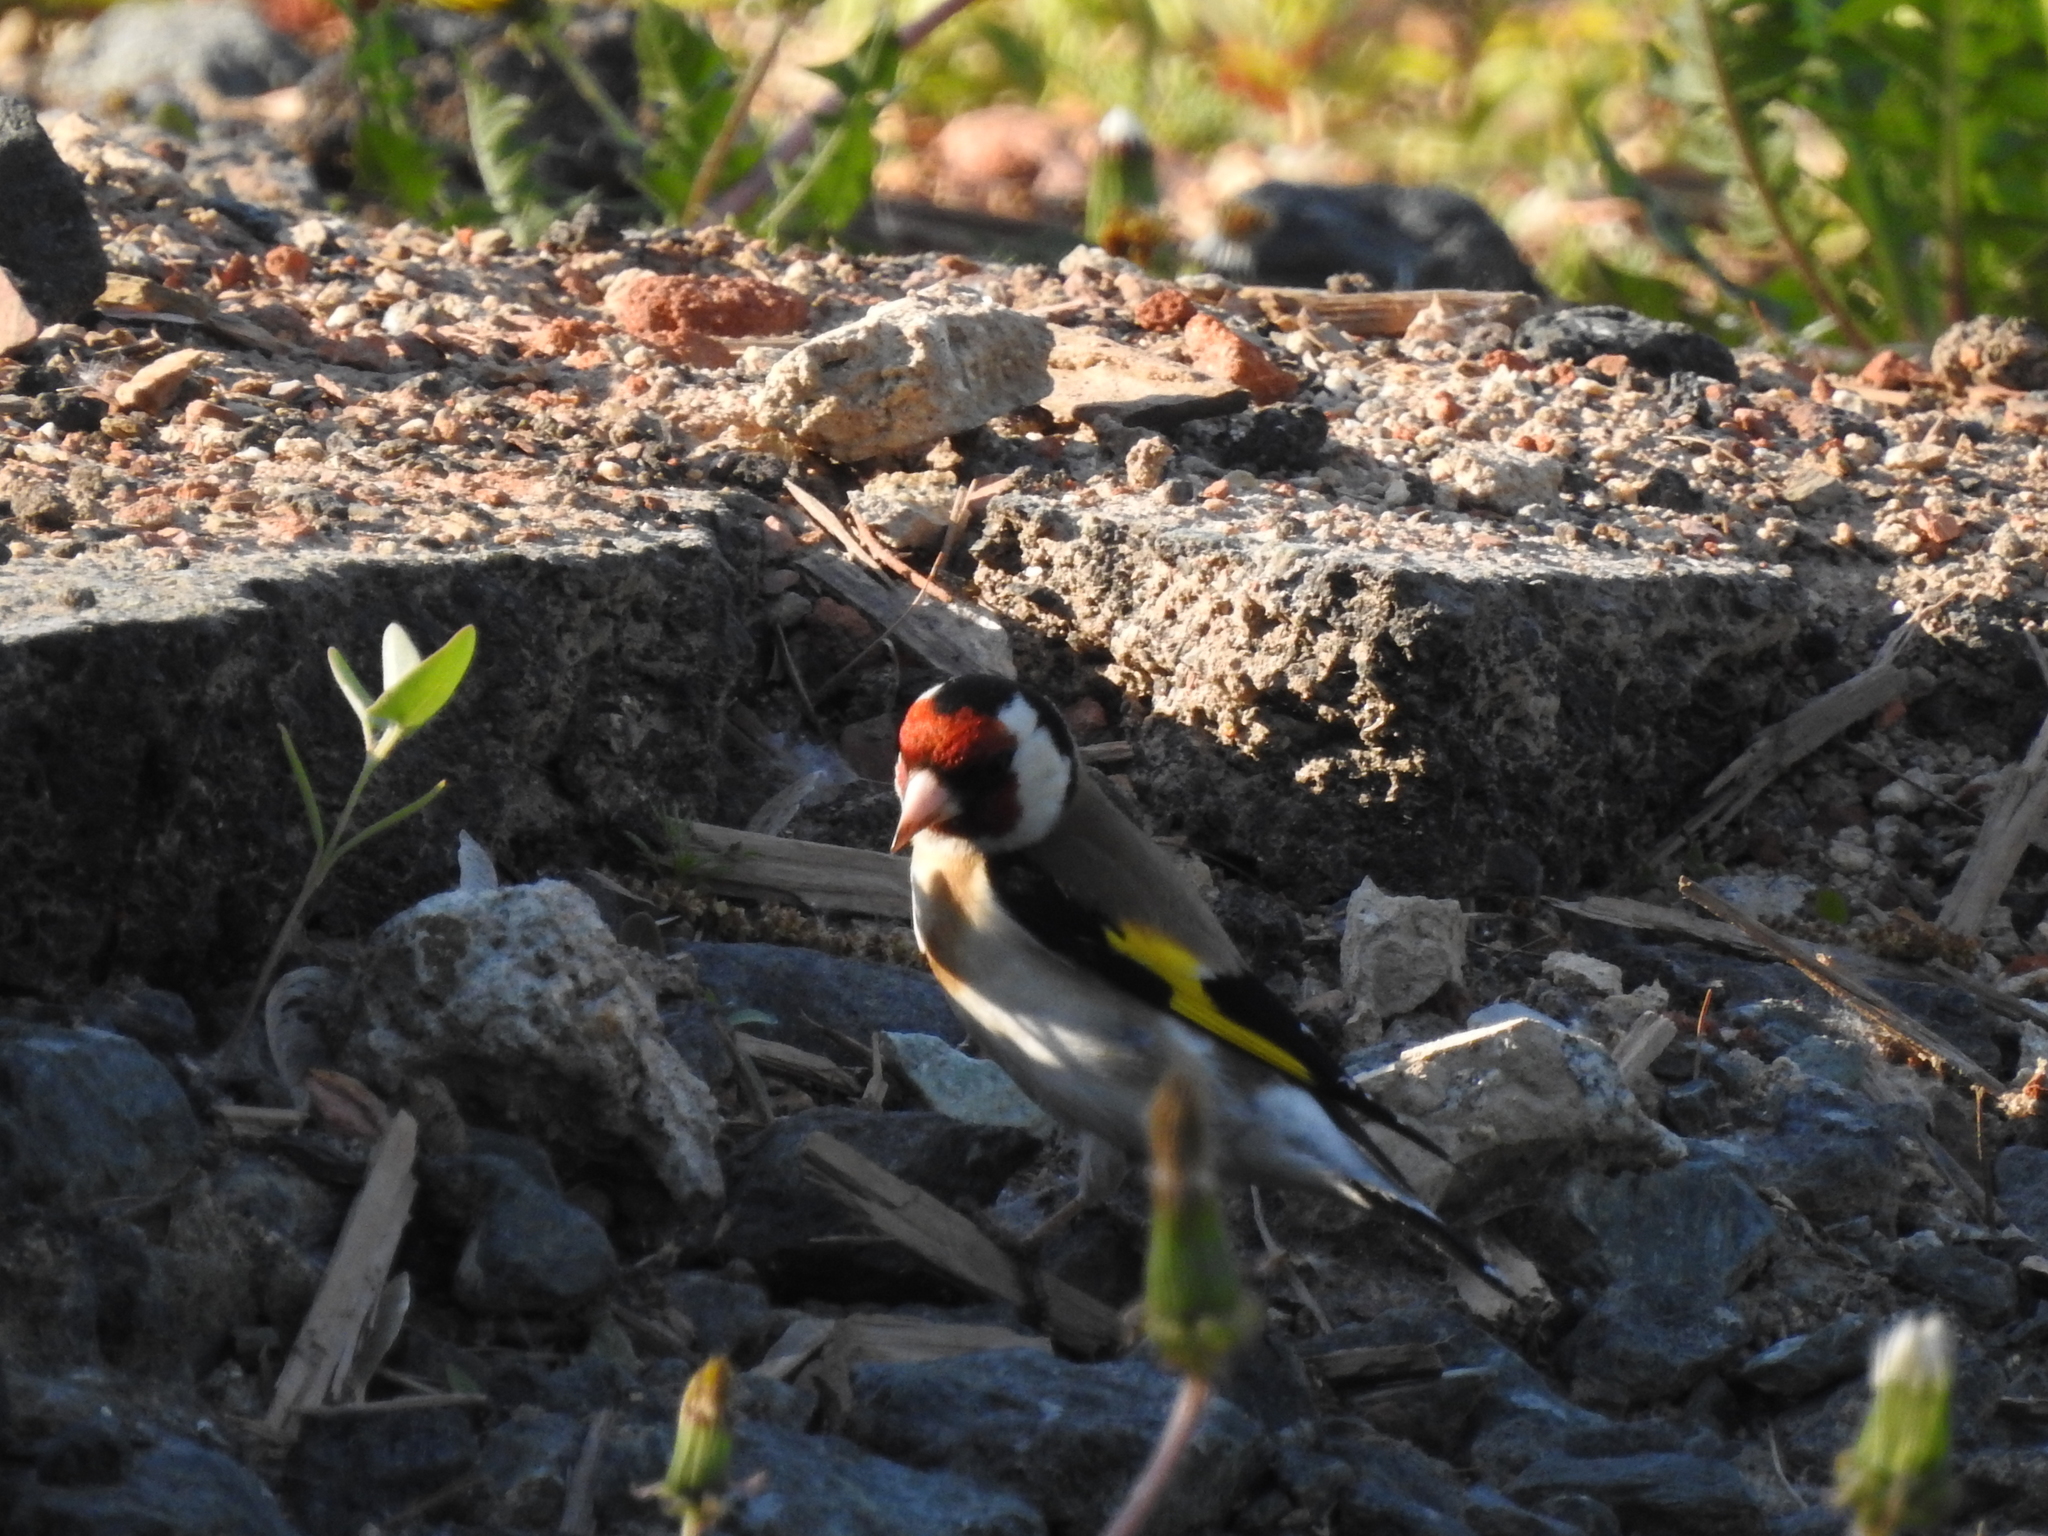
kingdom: Animalia
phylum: Chordata
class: Aves
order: Passeriformes
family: Fringillidae
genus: Carduelis
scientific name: Carduelis carduelis
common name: European goldfinch
